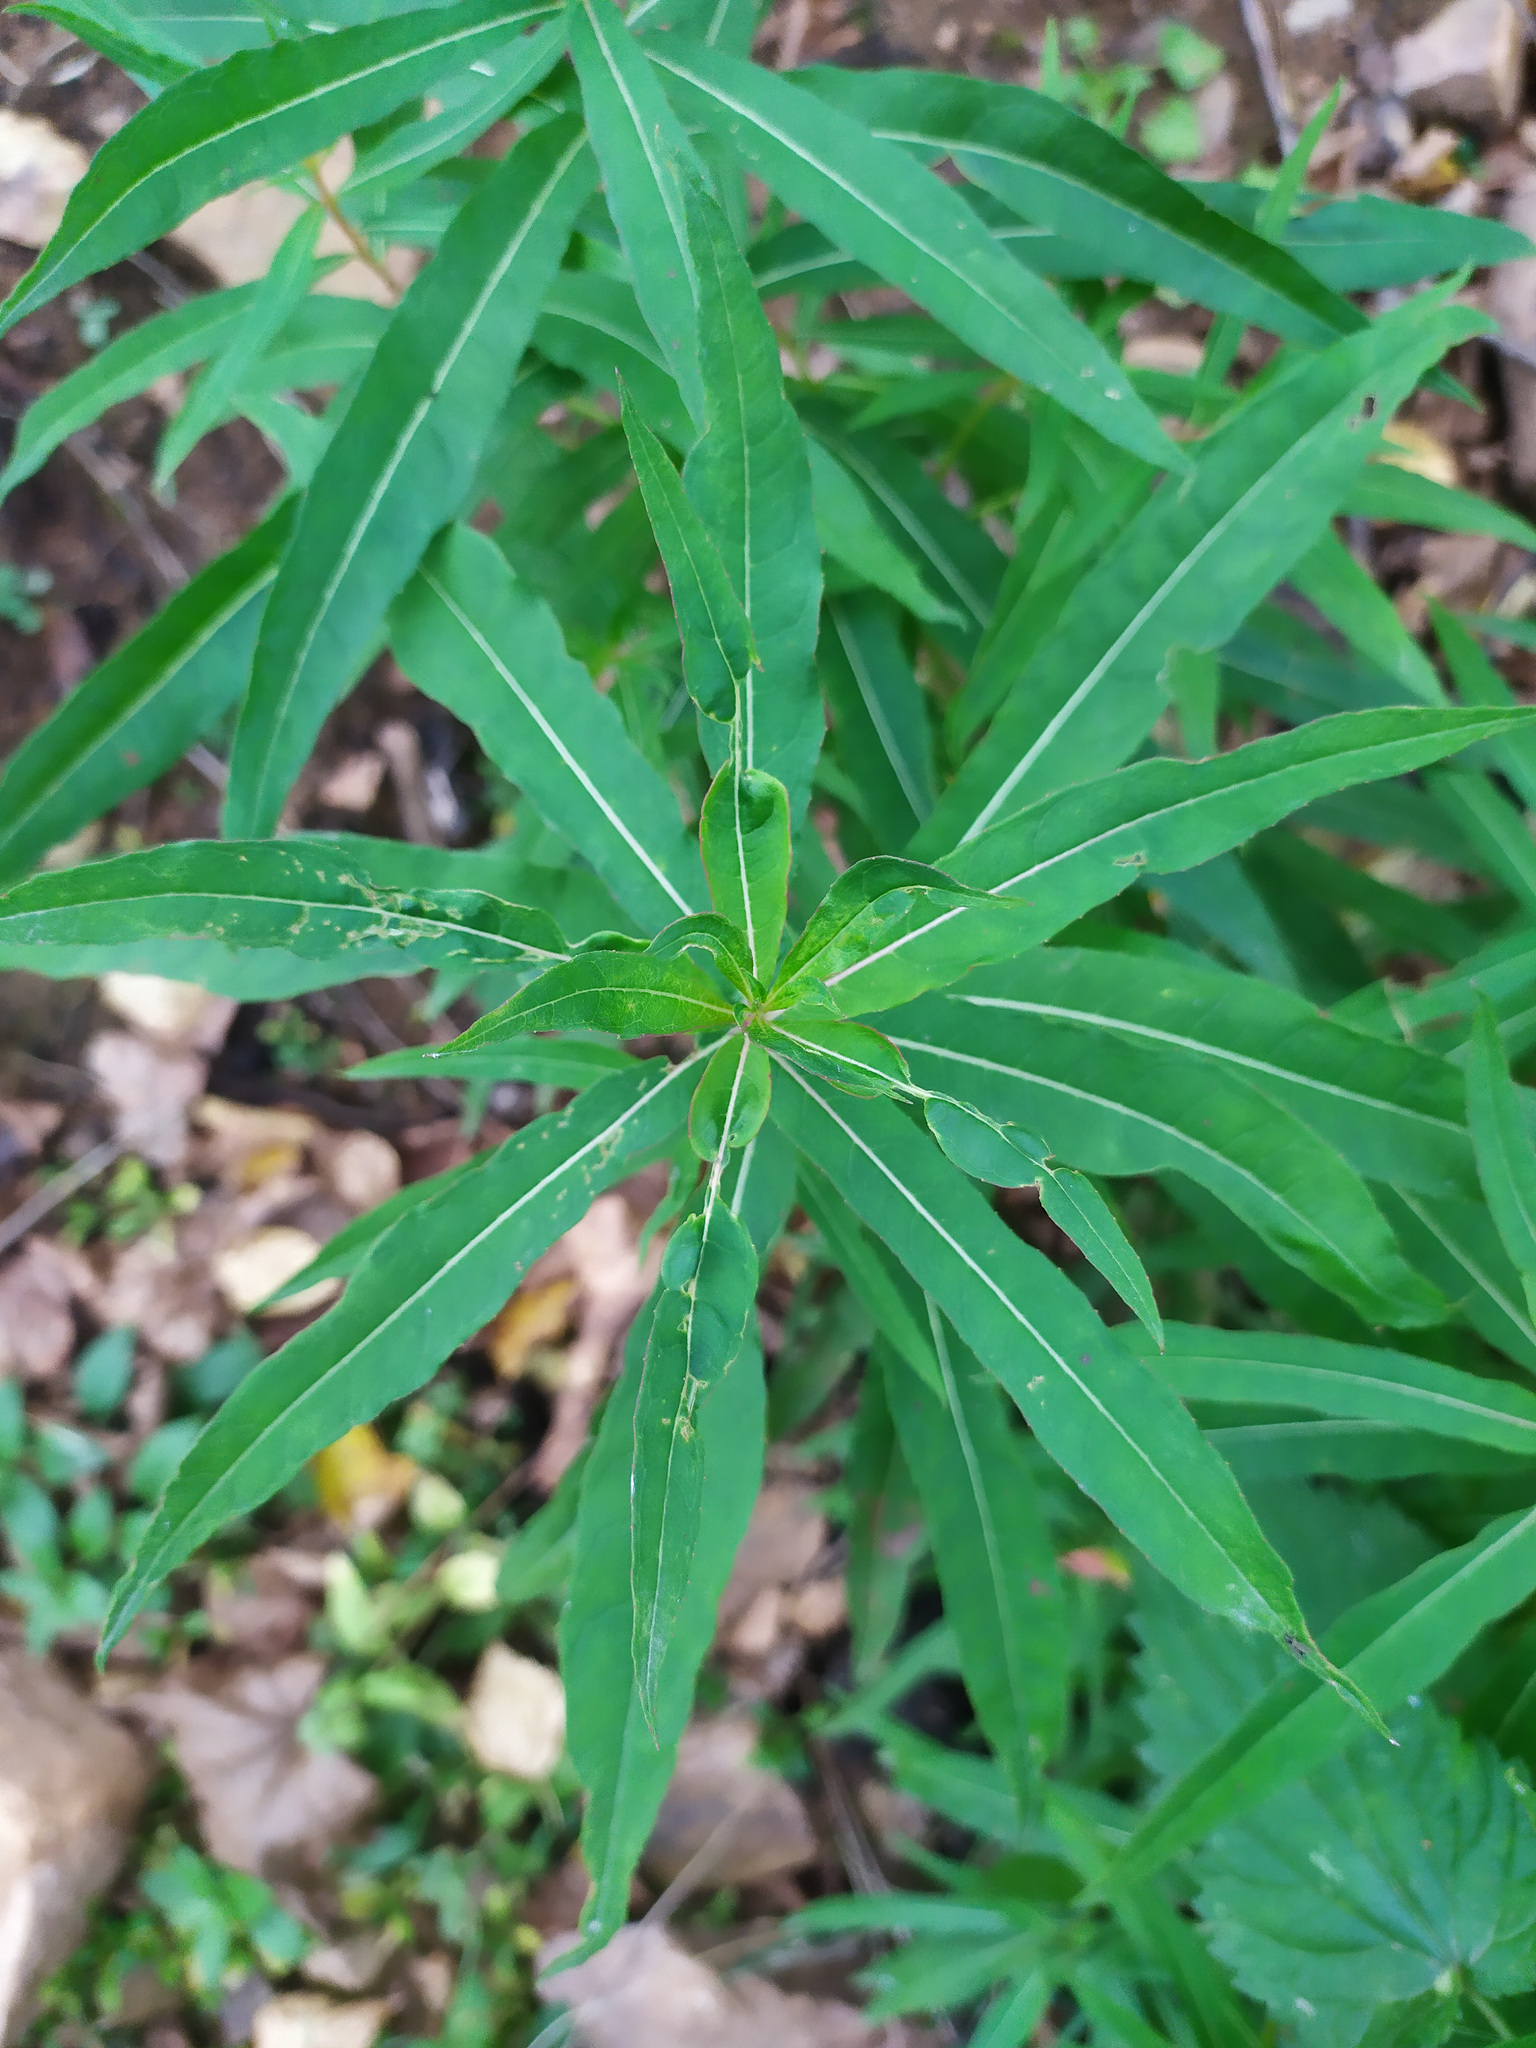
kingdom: Plantae
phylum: Tracheophyta
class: Magnoliopsida
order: Myrtales
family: Onagraceae
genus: Chamaenerion
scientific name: Chamaenerion angustifolium
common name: Fireweed
